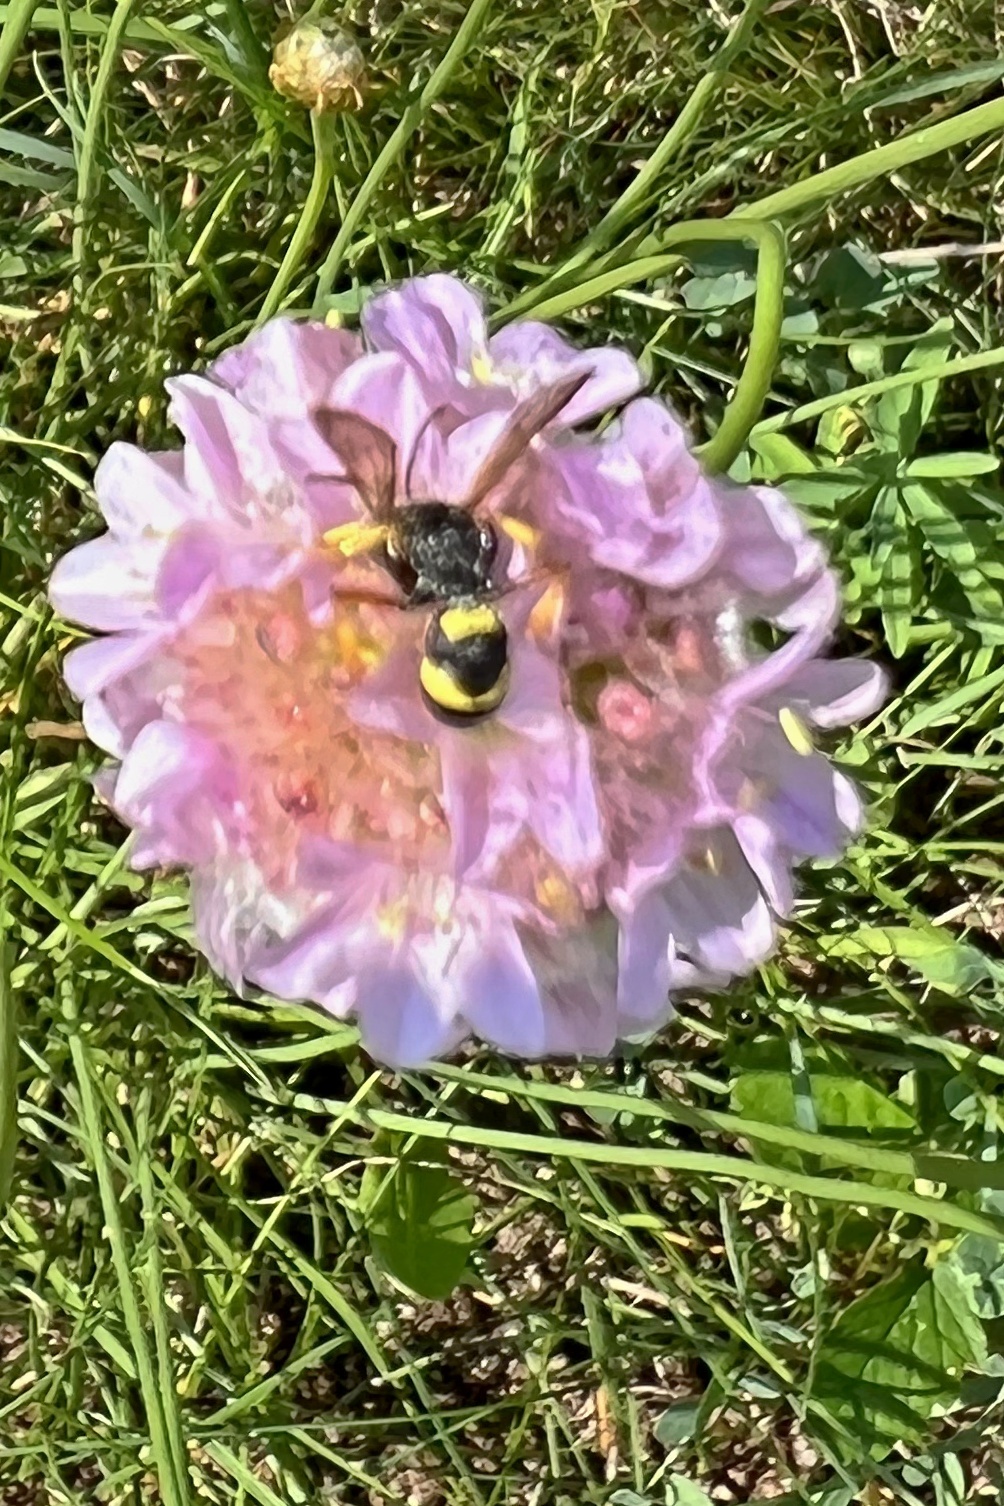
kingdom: Plantae
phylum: Tracheophyta
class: Magnoliopsida
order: Caryophyllales
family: Plumbaginaceae
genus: Armeria
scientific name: Armeria maritima
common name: Thrift
